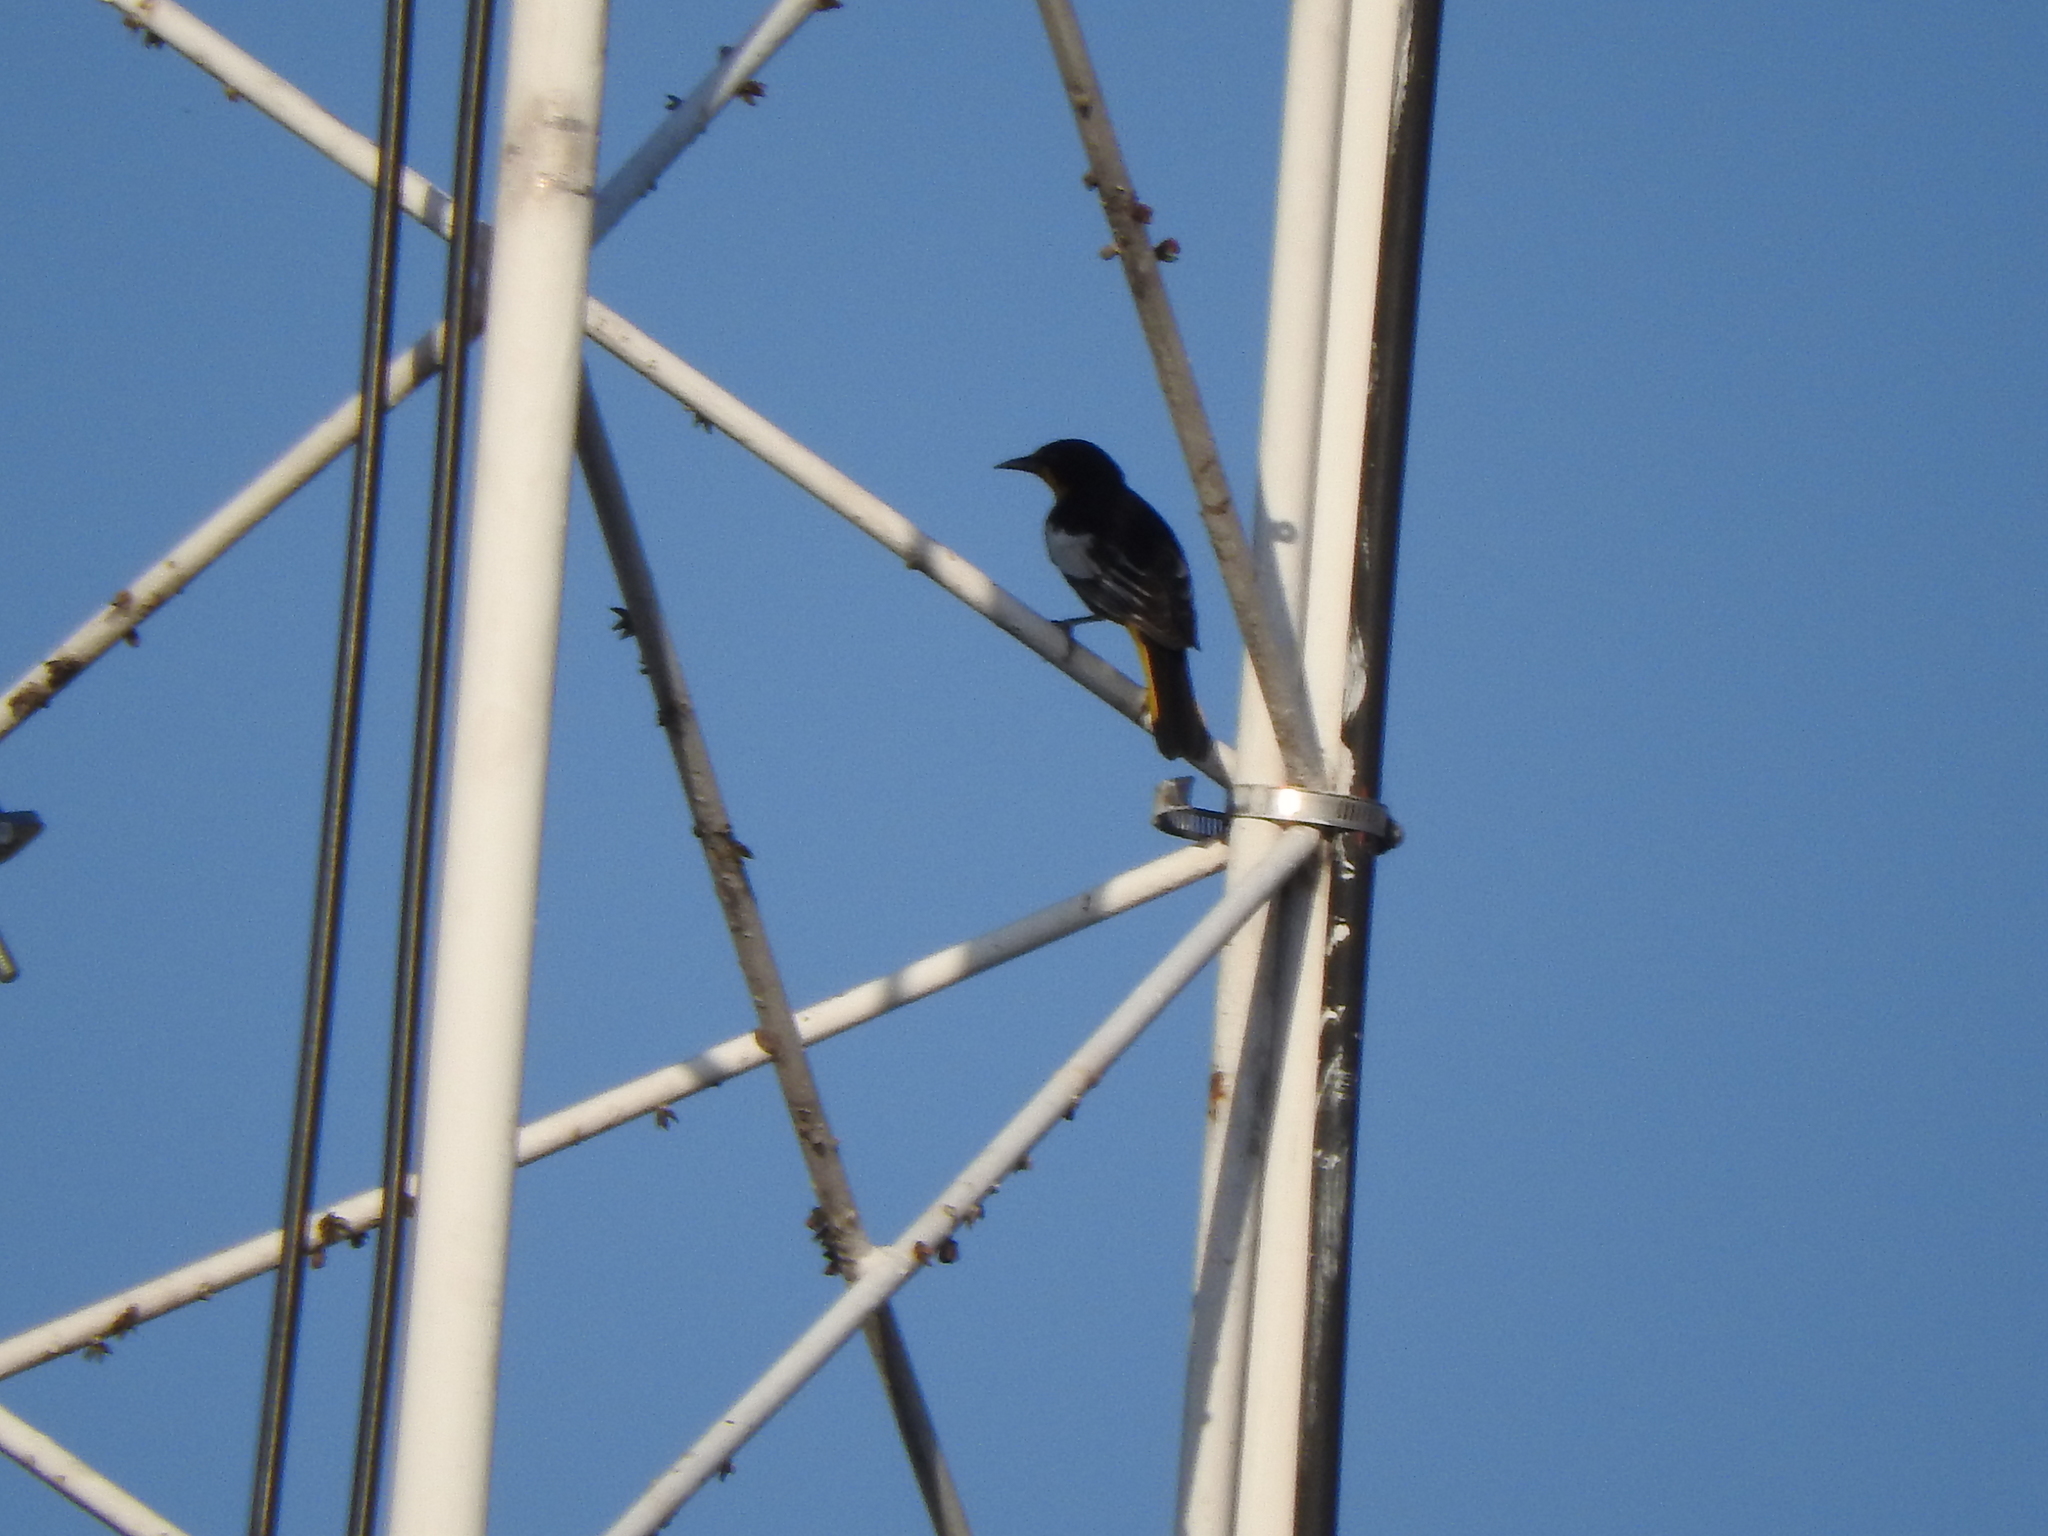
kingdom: Animalia
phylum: Chordata
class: Aves
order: Passeriformes
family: Icteridae
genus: Icterus
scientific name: Icterus abeillei
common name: Black-backed oriole
